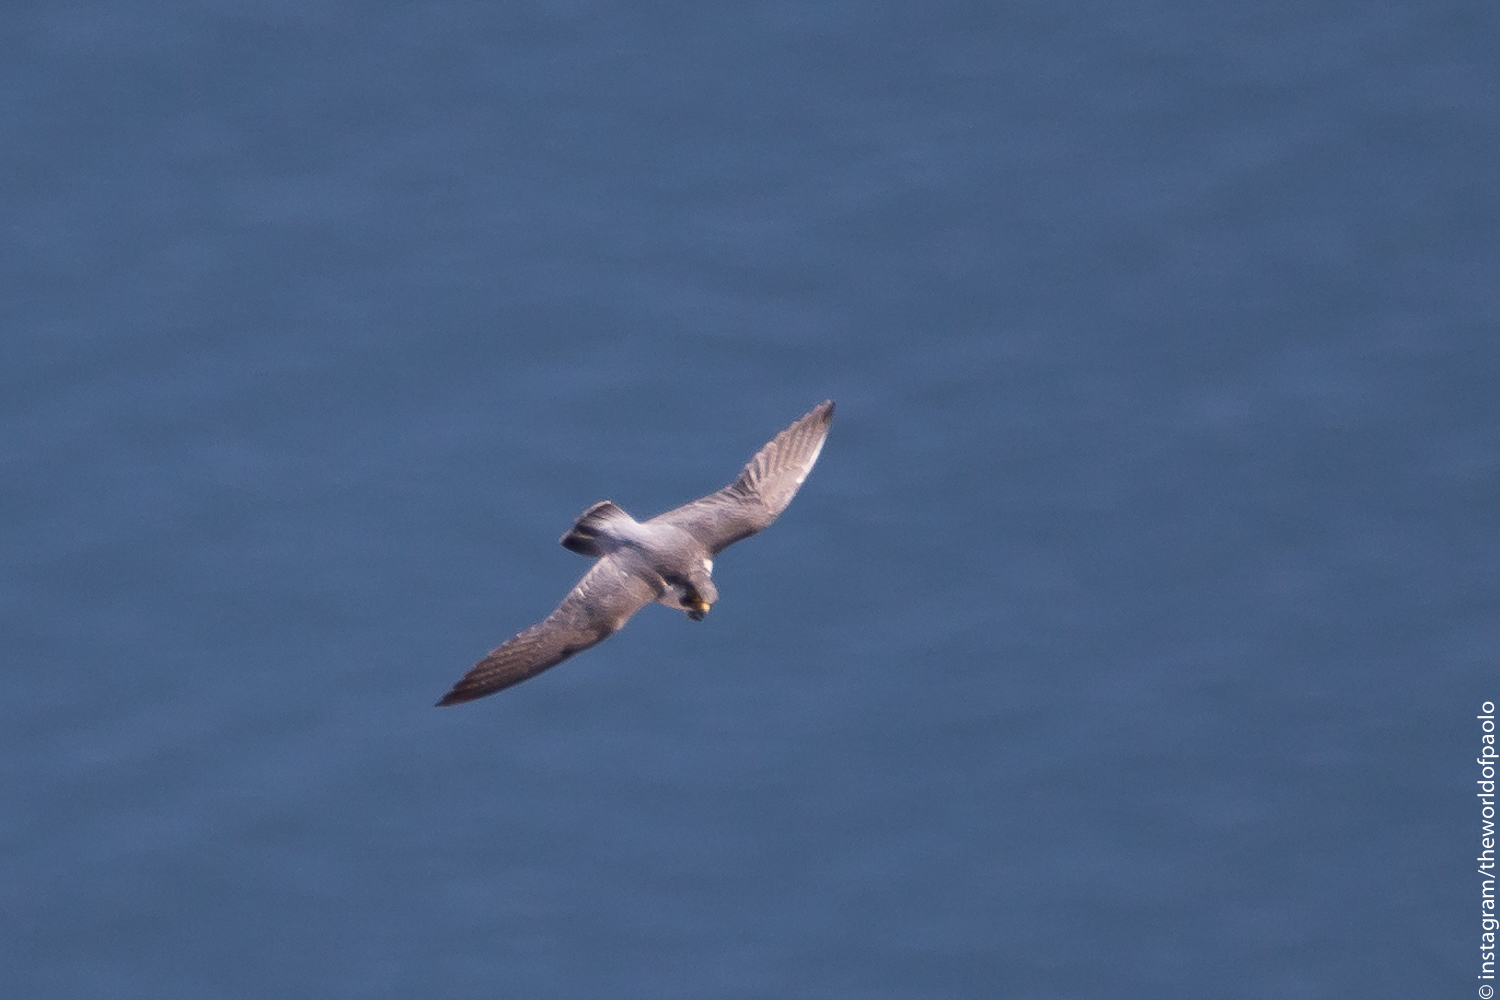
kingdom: Animalia
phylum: Chordata
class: Aves
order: Falconiformes
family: Falconidae
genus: Falco
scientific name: Falco peregrinus
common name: Peregrine falcon
